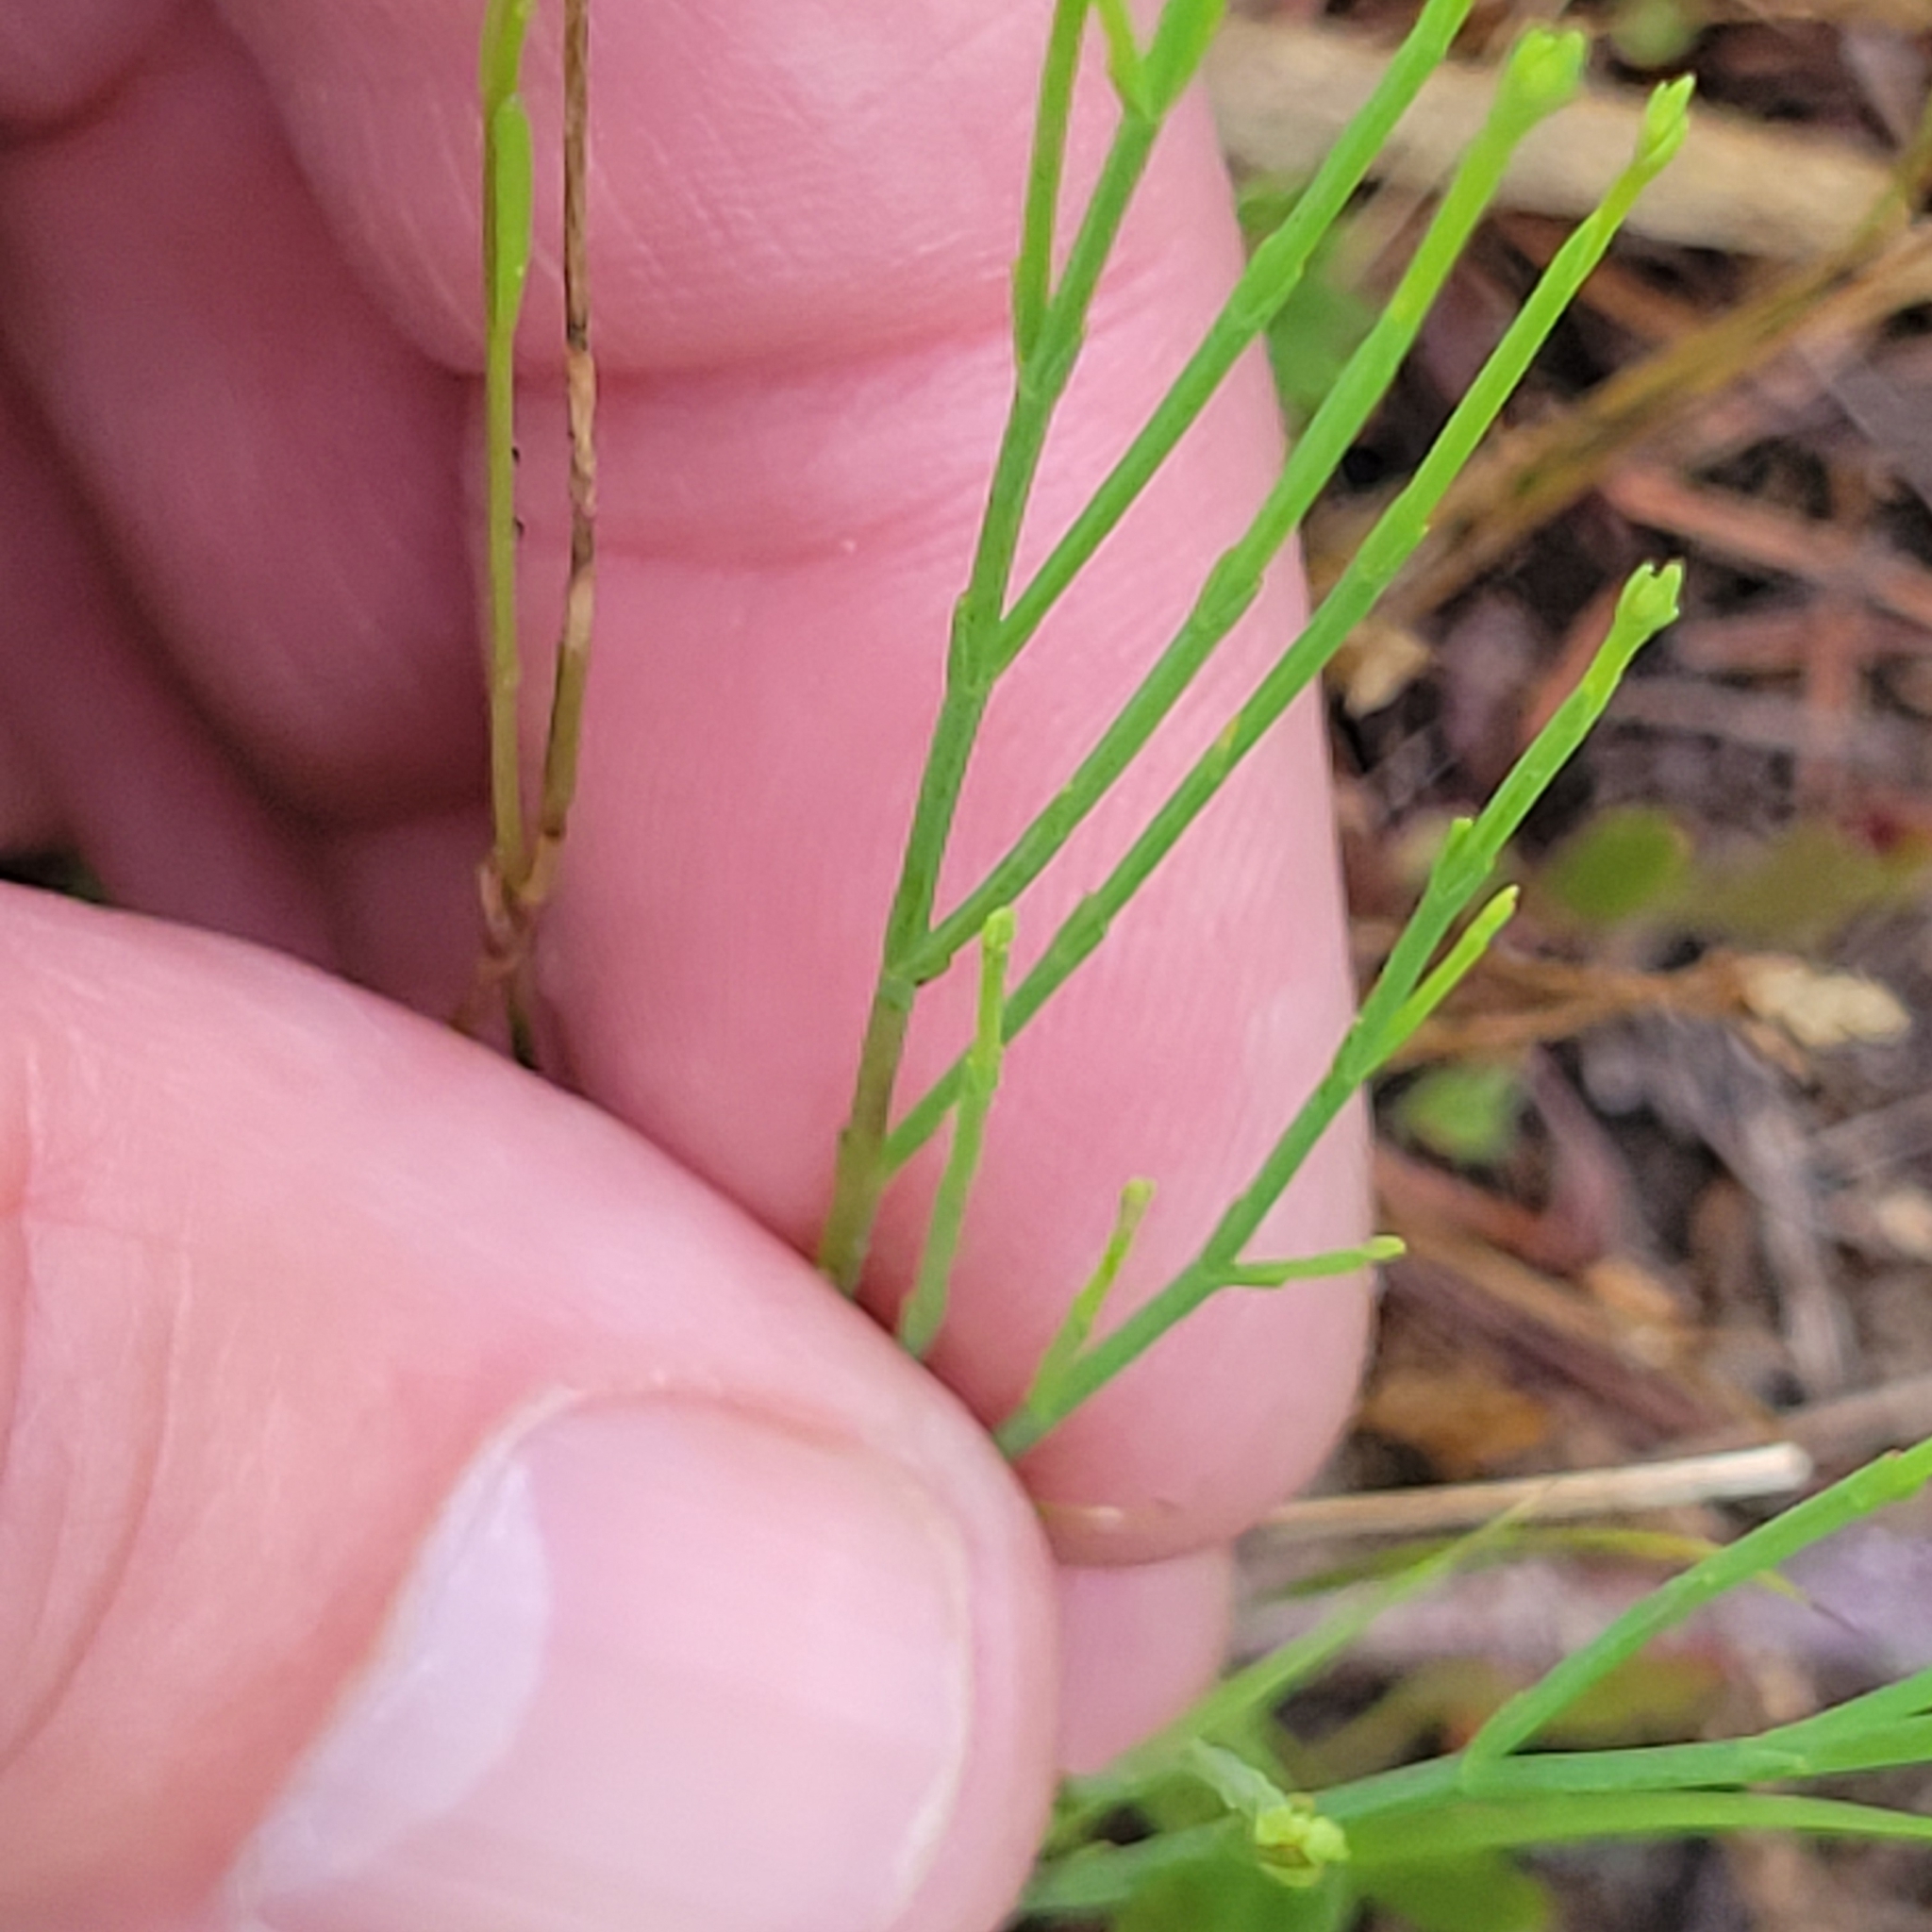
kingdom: Plantae
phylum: Tracheophyta
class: Magnoliopsida
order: Malpighiales
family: Hypericaceae
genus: Hypericum
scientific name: Hypericum gentianoides
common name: Gentian-leaved st. john's-wort
